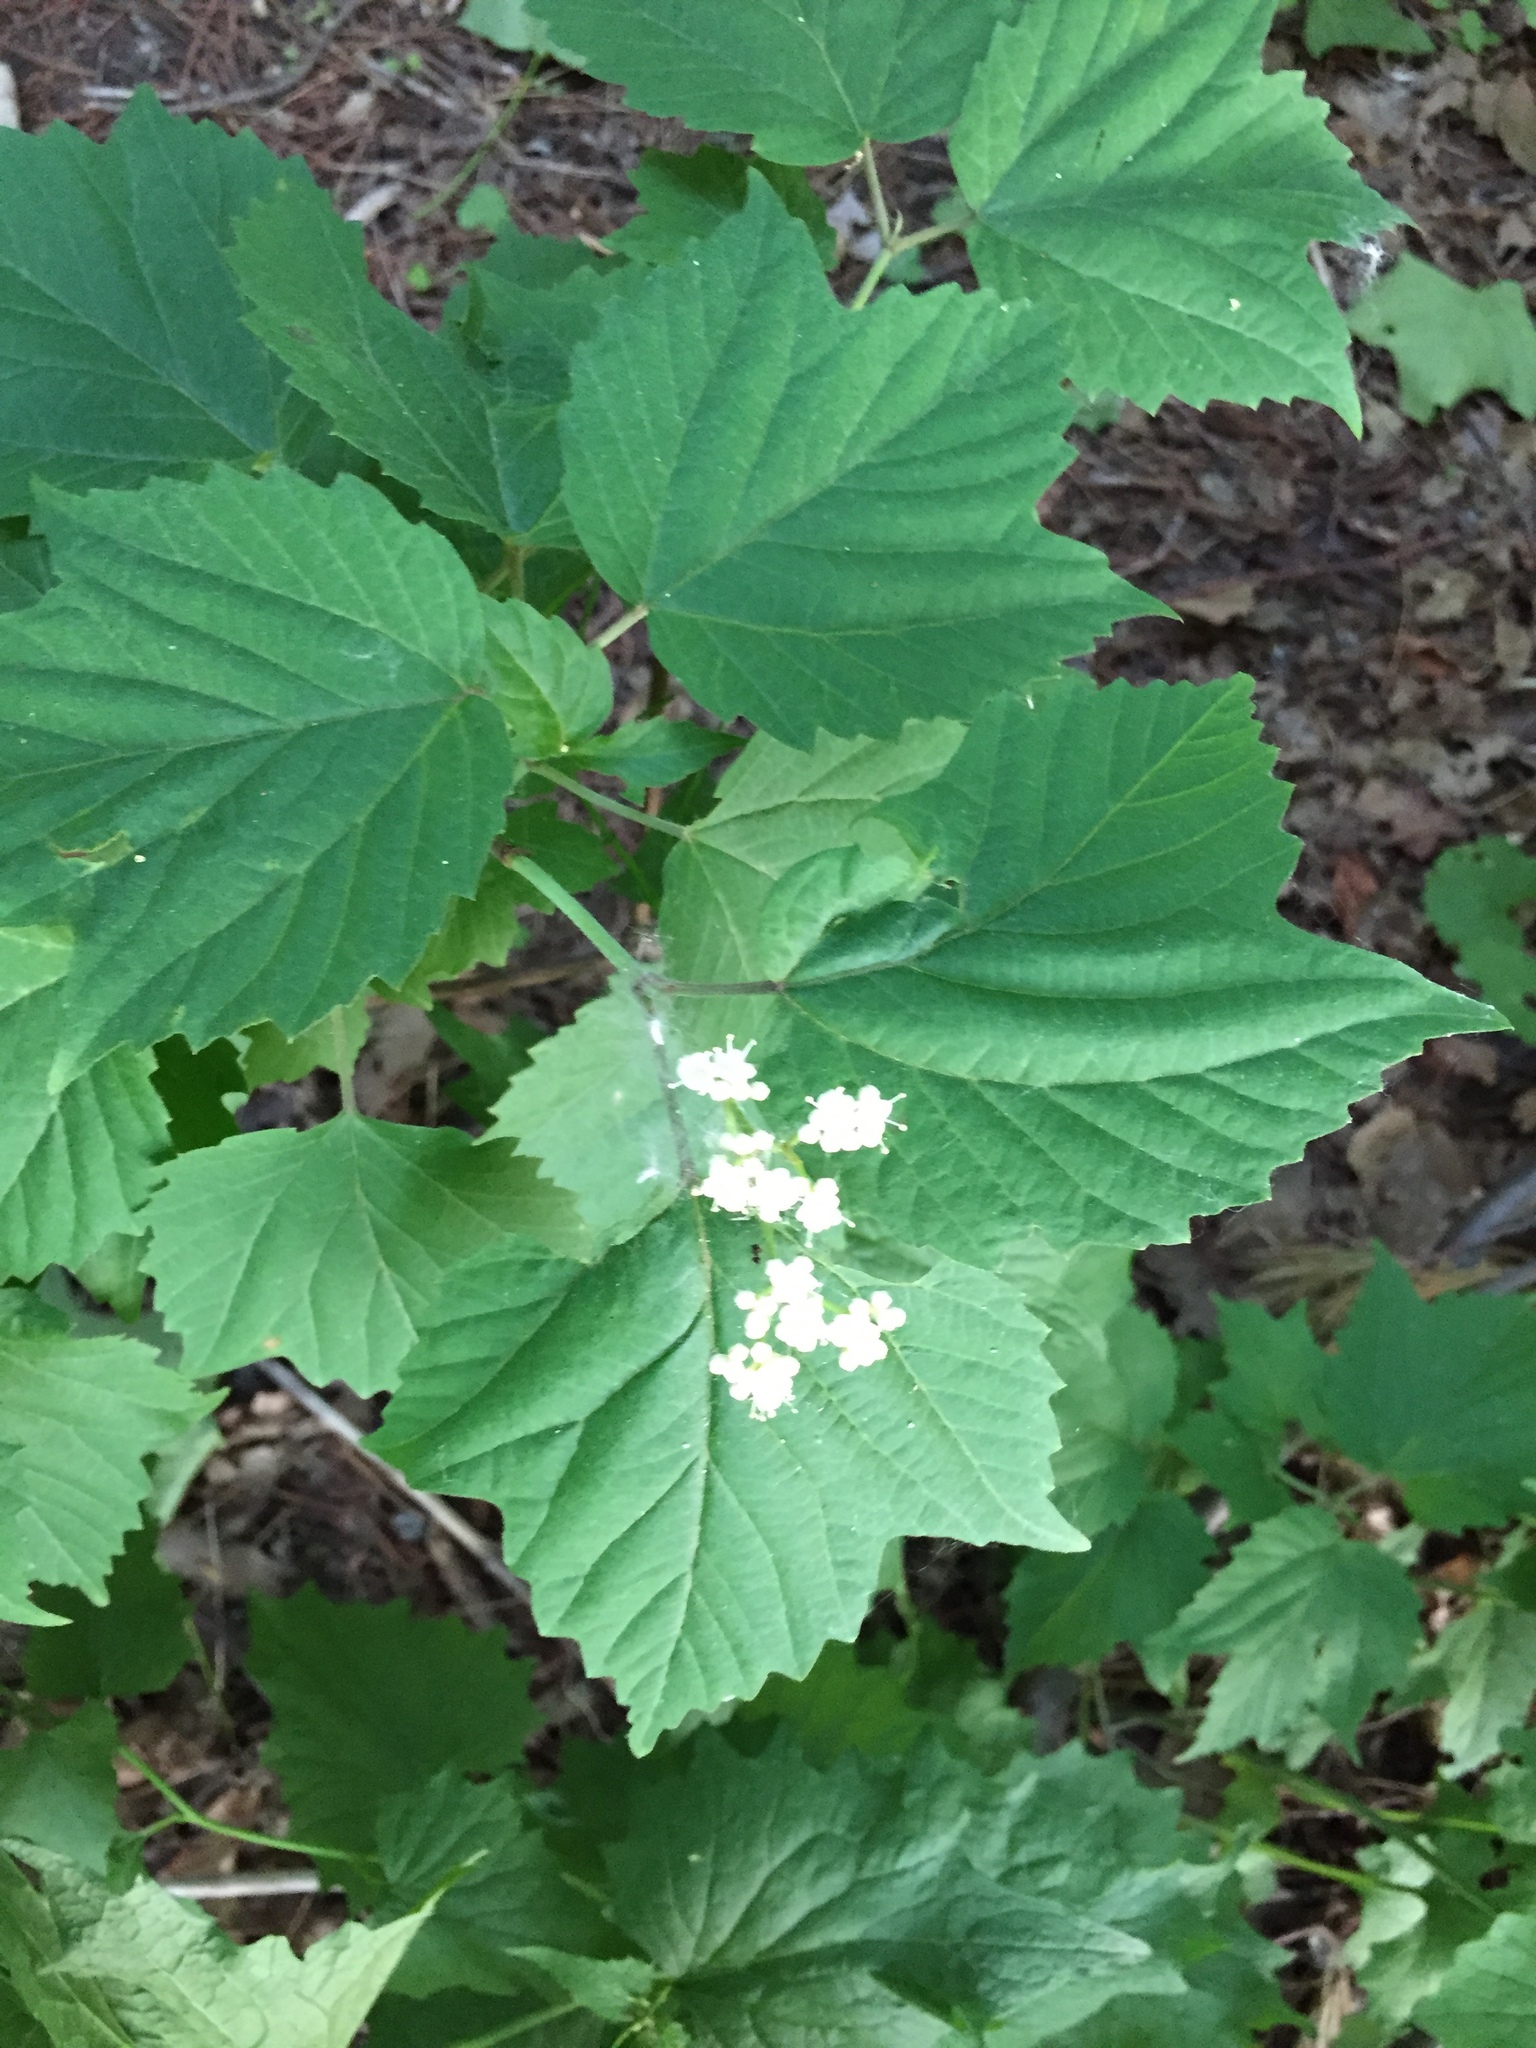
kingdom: Plantae
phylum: Tracheophyta
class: Magnoliopsida
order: Dipsacales
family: Viburnaceae
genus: Viburnum
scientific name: Viburnum acerifolium
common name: Dockmackie
